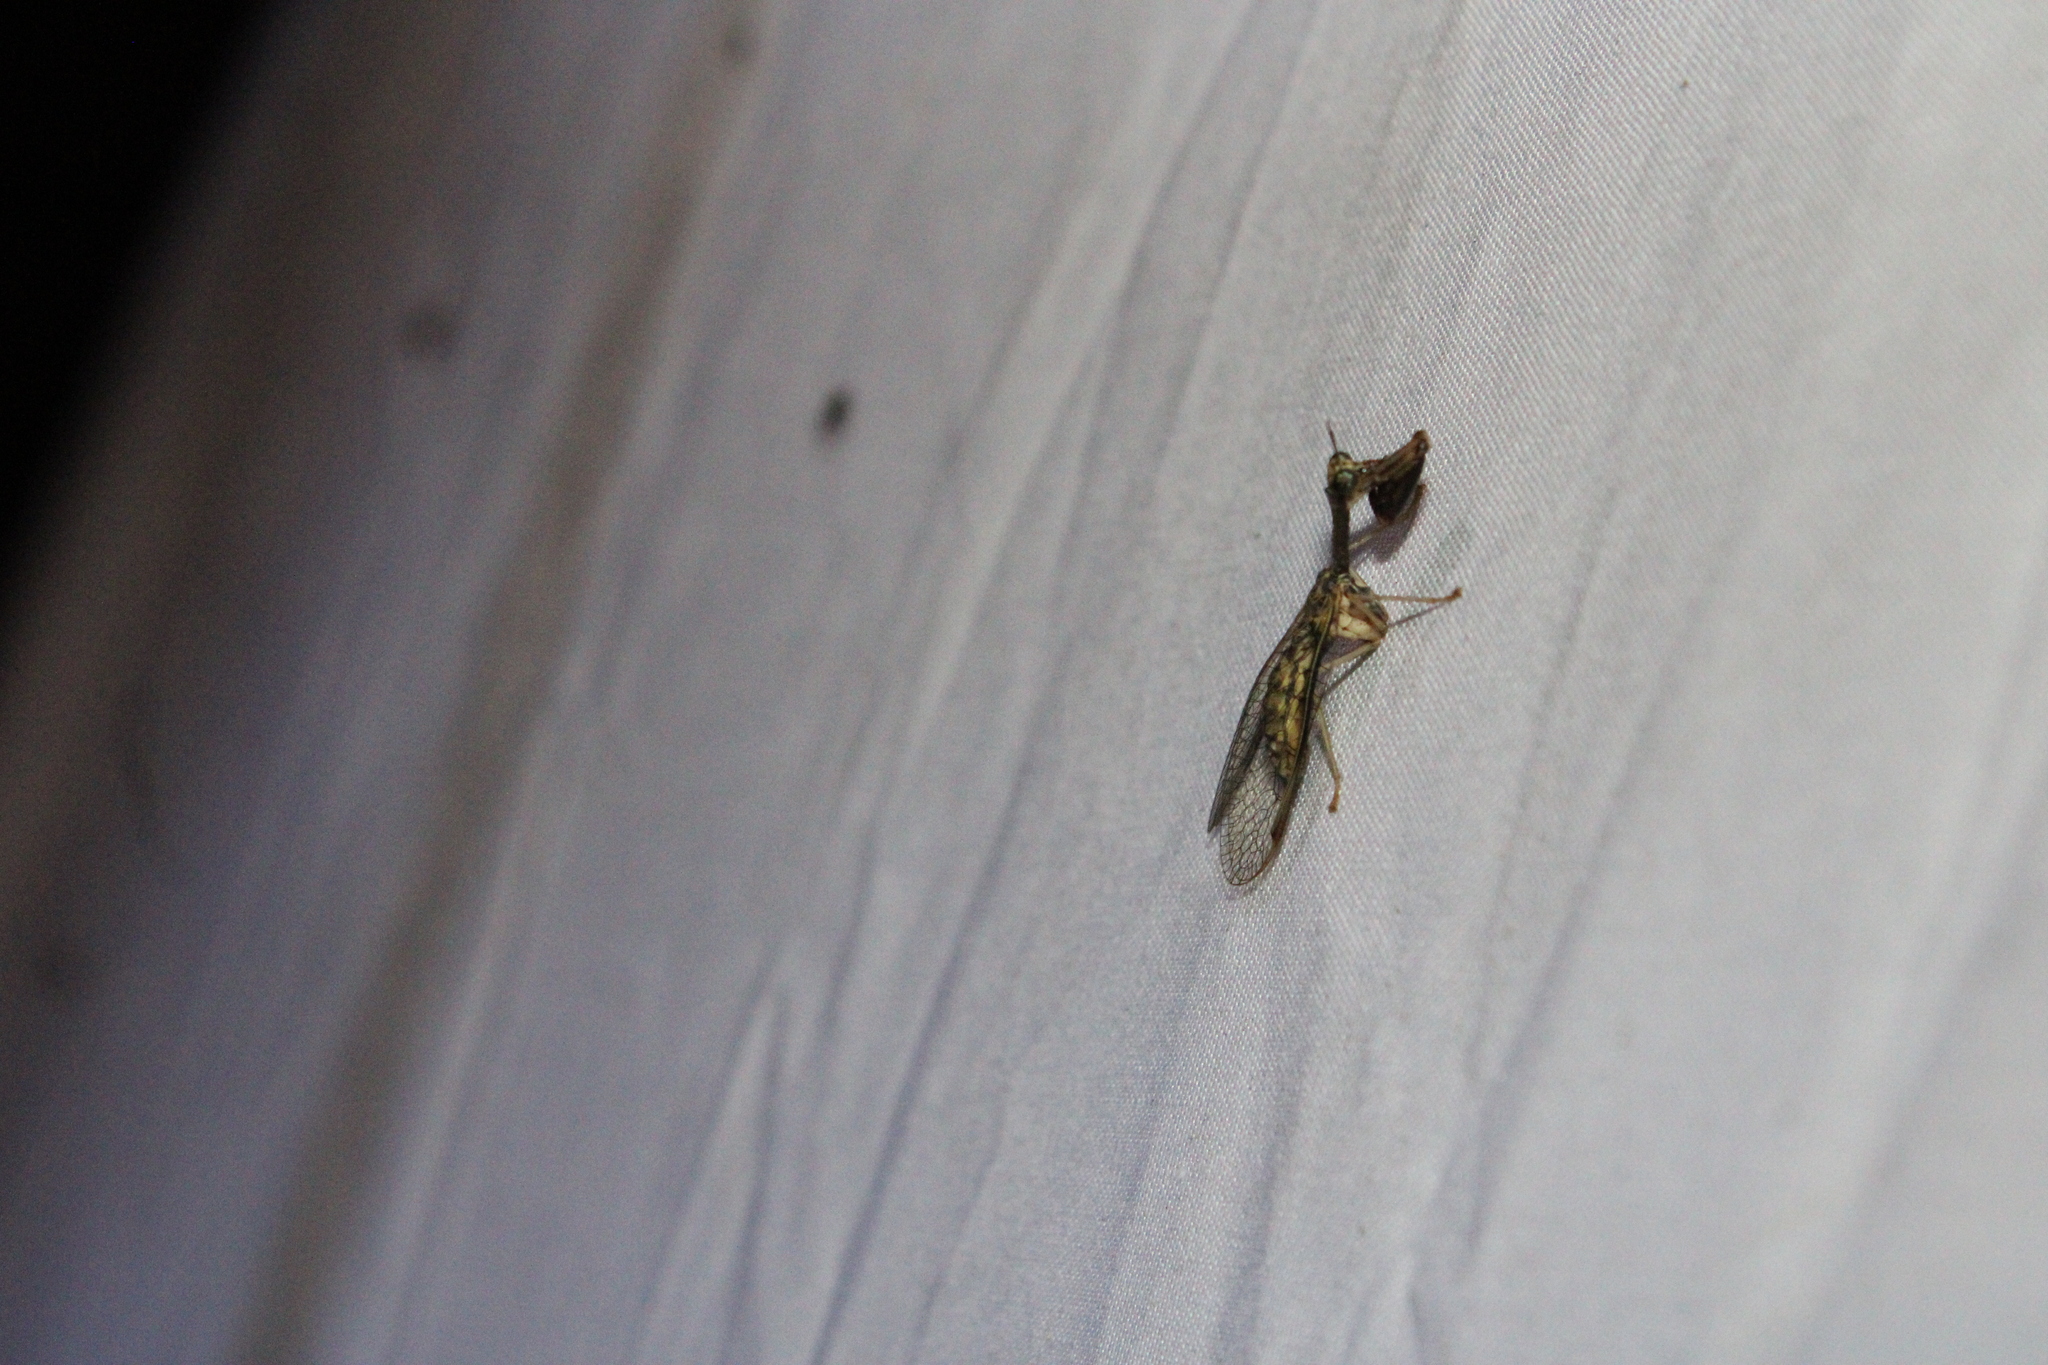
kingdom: Animalia
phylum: Arthropoda
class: Insecta
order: Neuroptera
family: Mantispidae
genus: Dicromantispa
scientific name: Dicromantispa sayi
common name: Say's mantidfly
